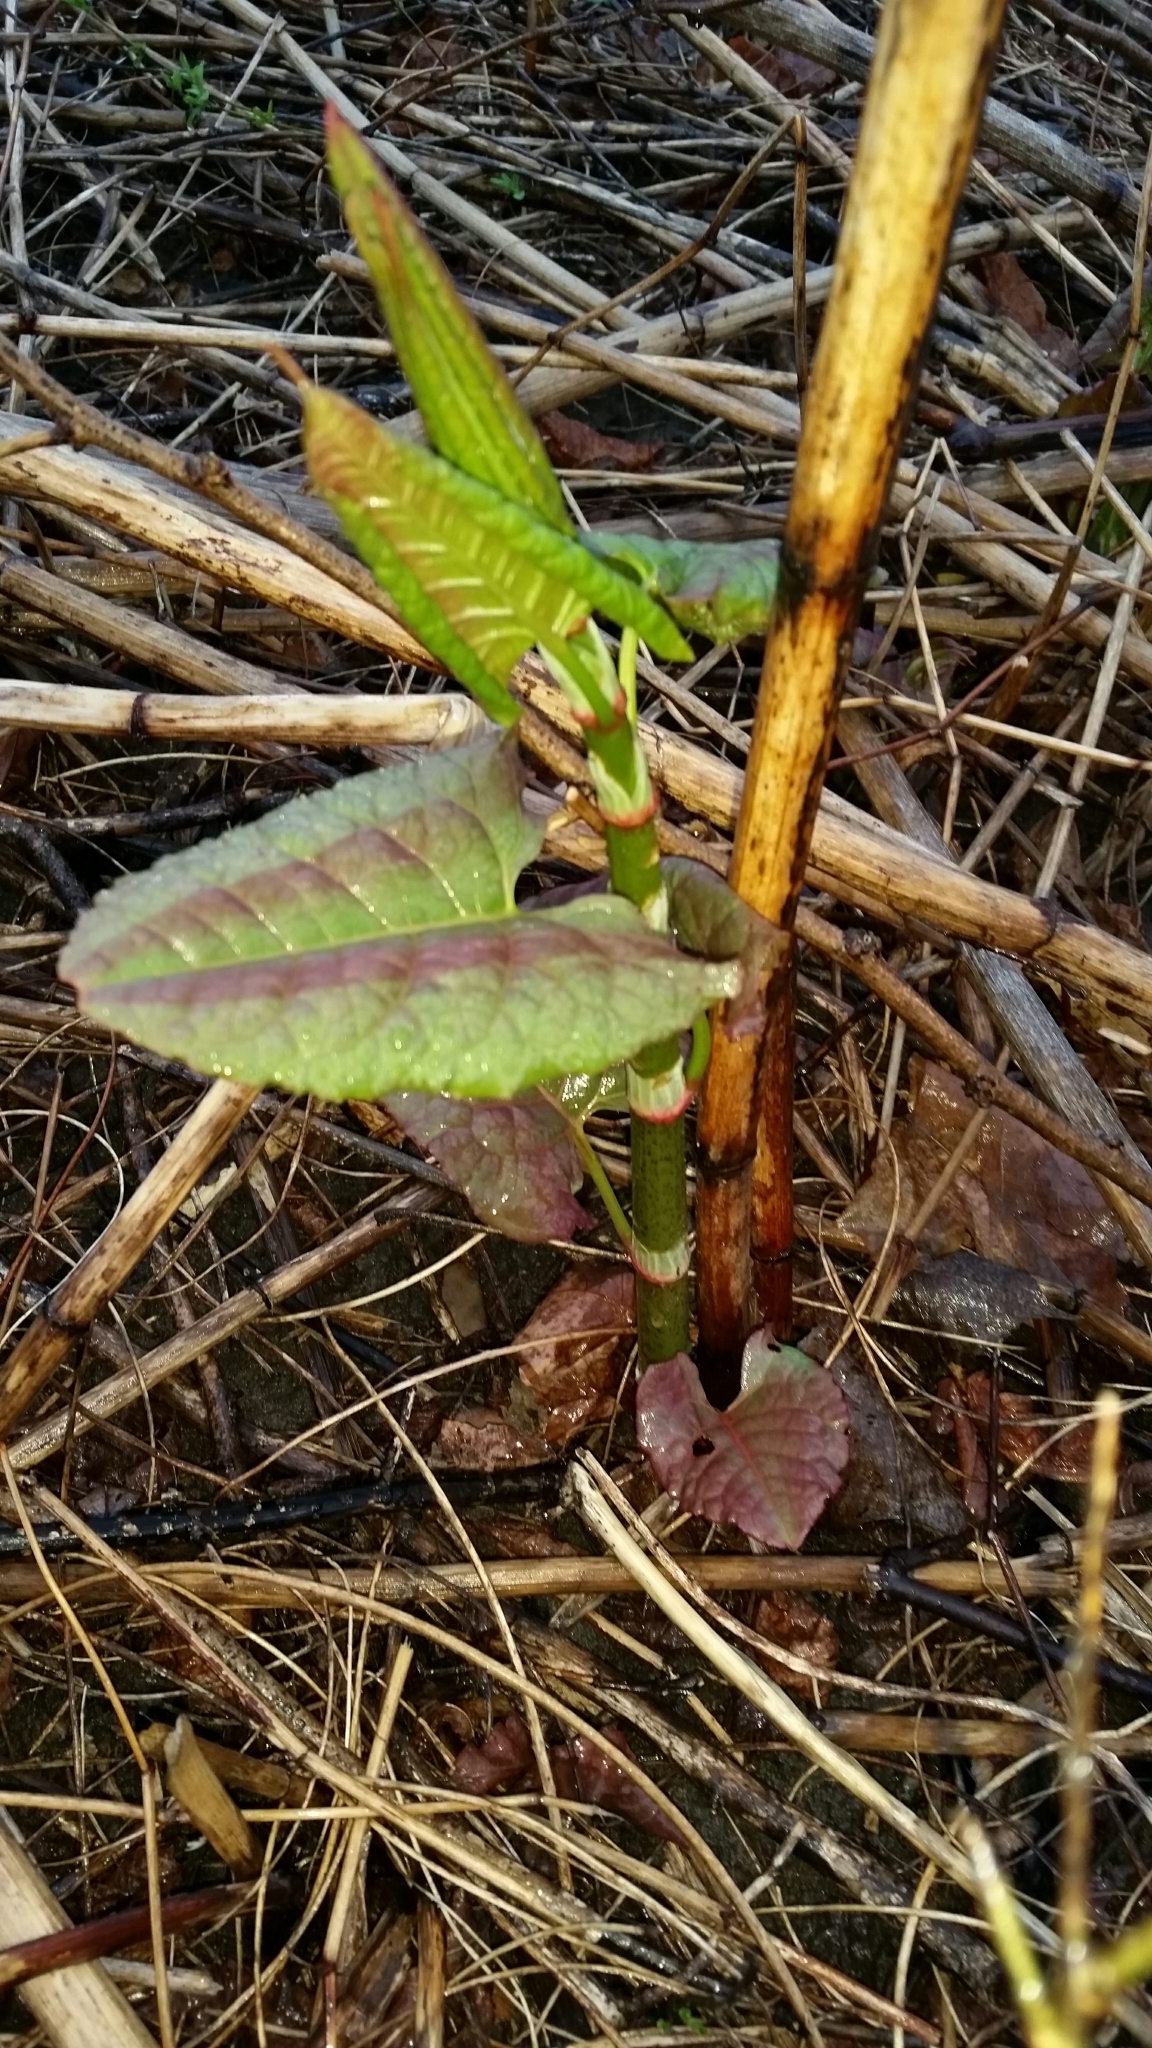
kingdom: Plantae
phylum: Tracheophyta
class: Magnoliopsida
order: Caryophyllales
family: Polygonaceae
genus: Reynoutria
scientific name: Reynoutria japonica
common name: Japanese knotweed
